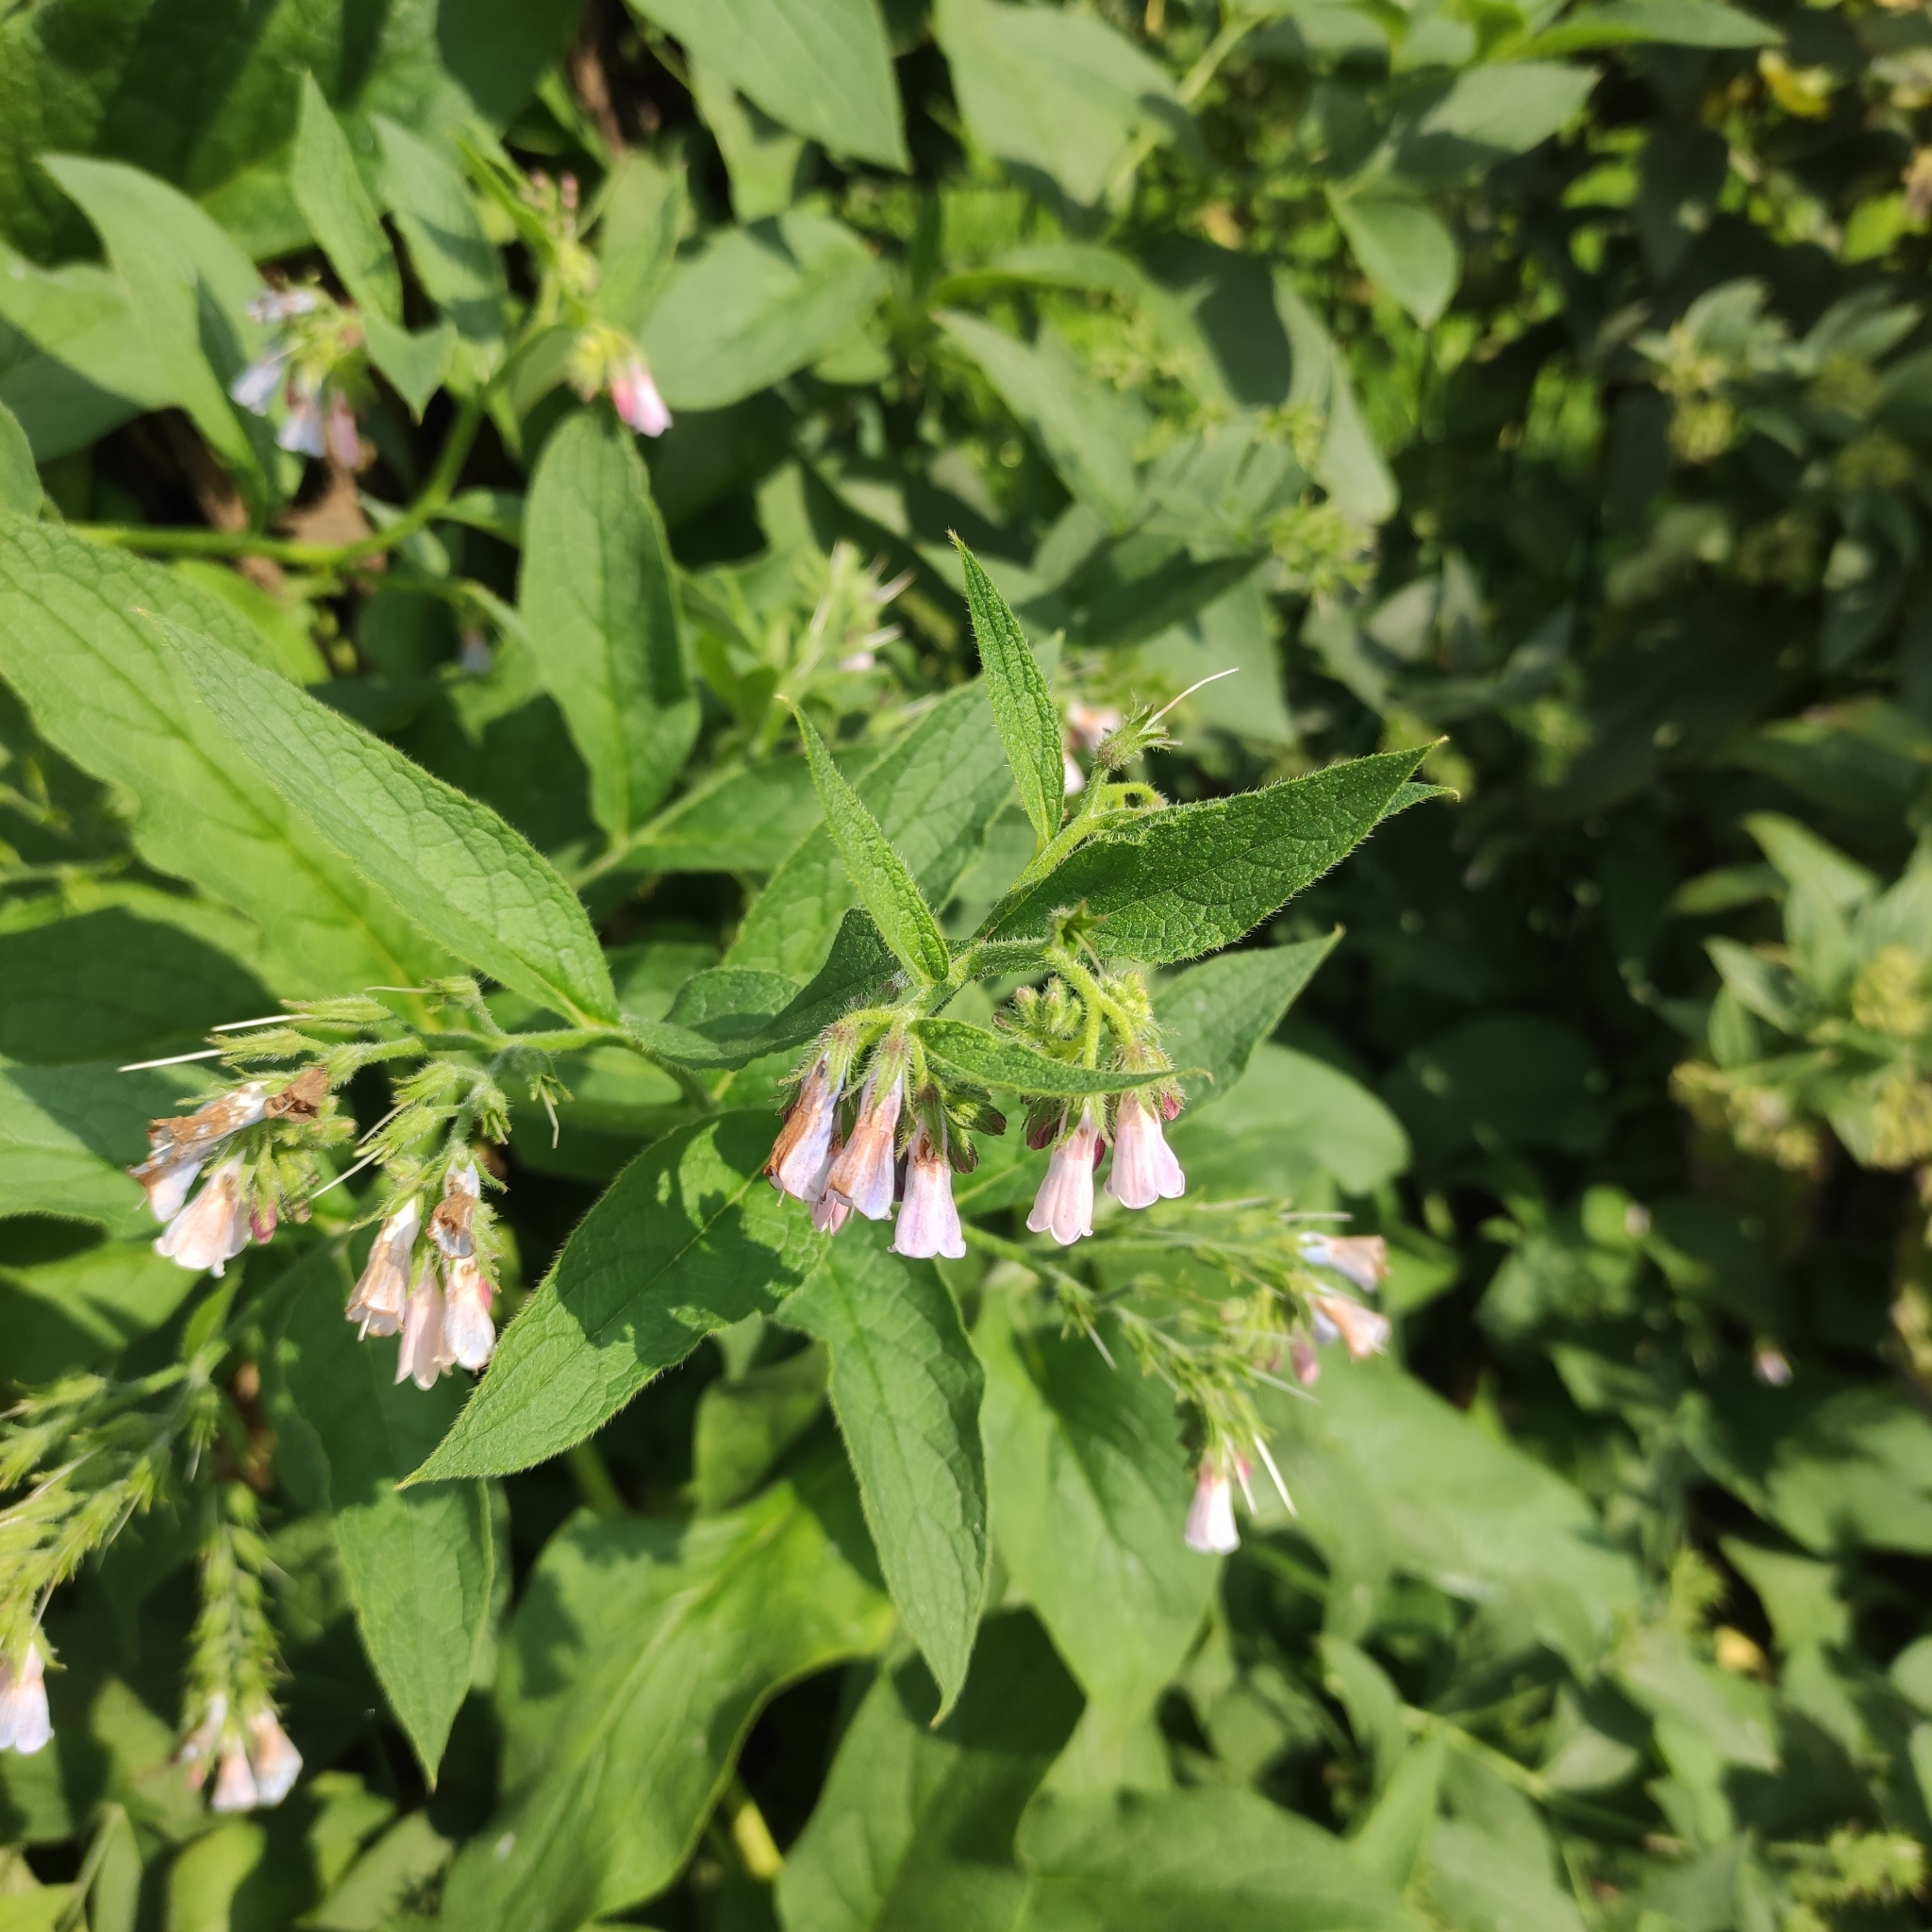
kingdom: Plantae
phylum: Tracheophyta
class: Magnoliopsida
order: Boraginales
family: Boraginaceae
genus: Symphytum
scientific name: Symphytum uplandicum
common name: Russian comfrey
